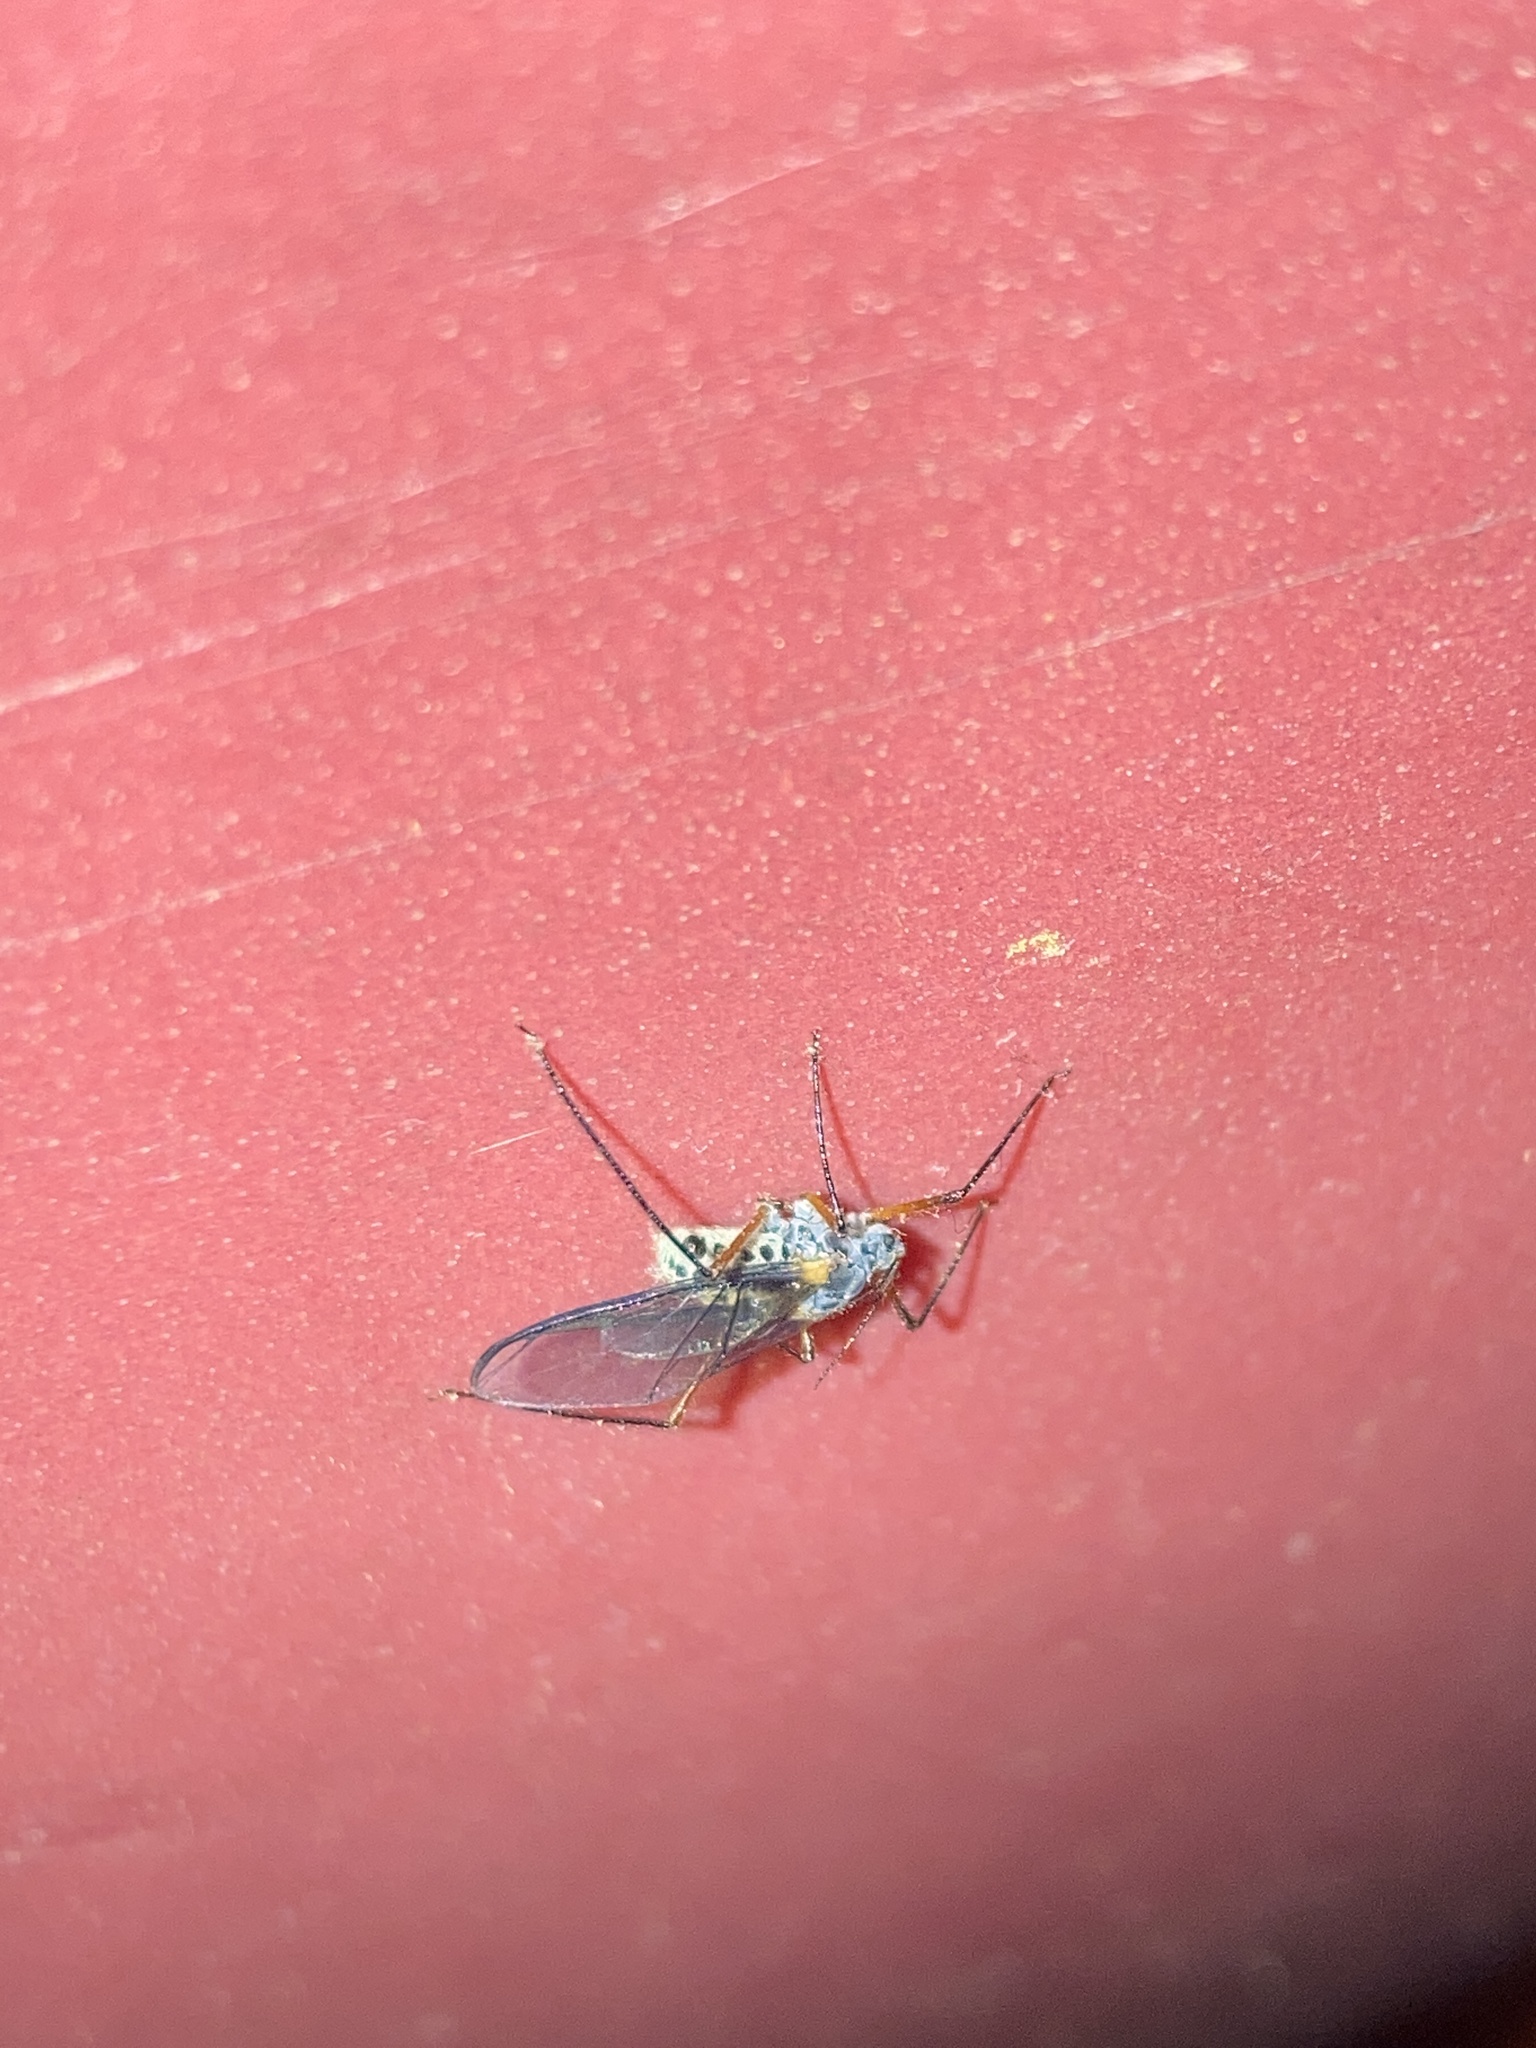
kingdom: Animalia
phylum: Arthropoda
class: Insecta
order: Hemiptera
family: Aphididae
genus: Longistigma
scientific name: Longistigma caryae
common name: Giant bark aphid
